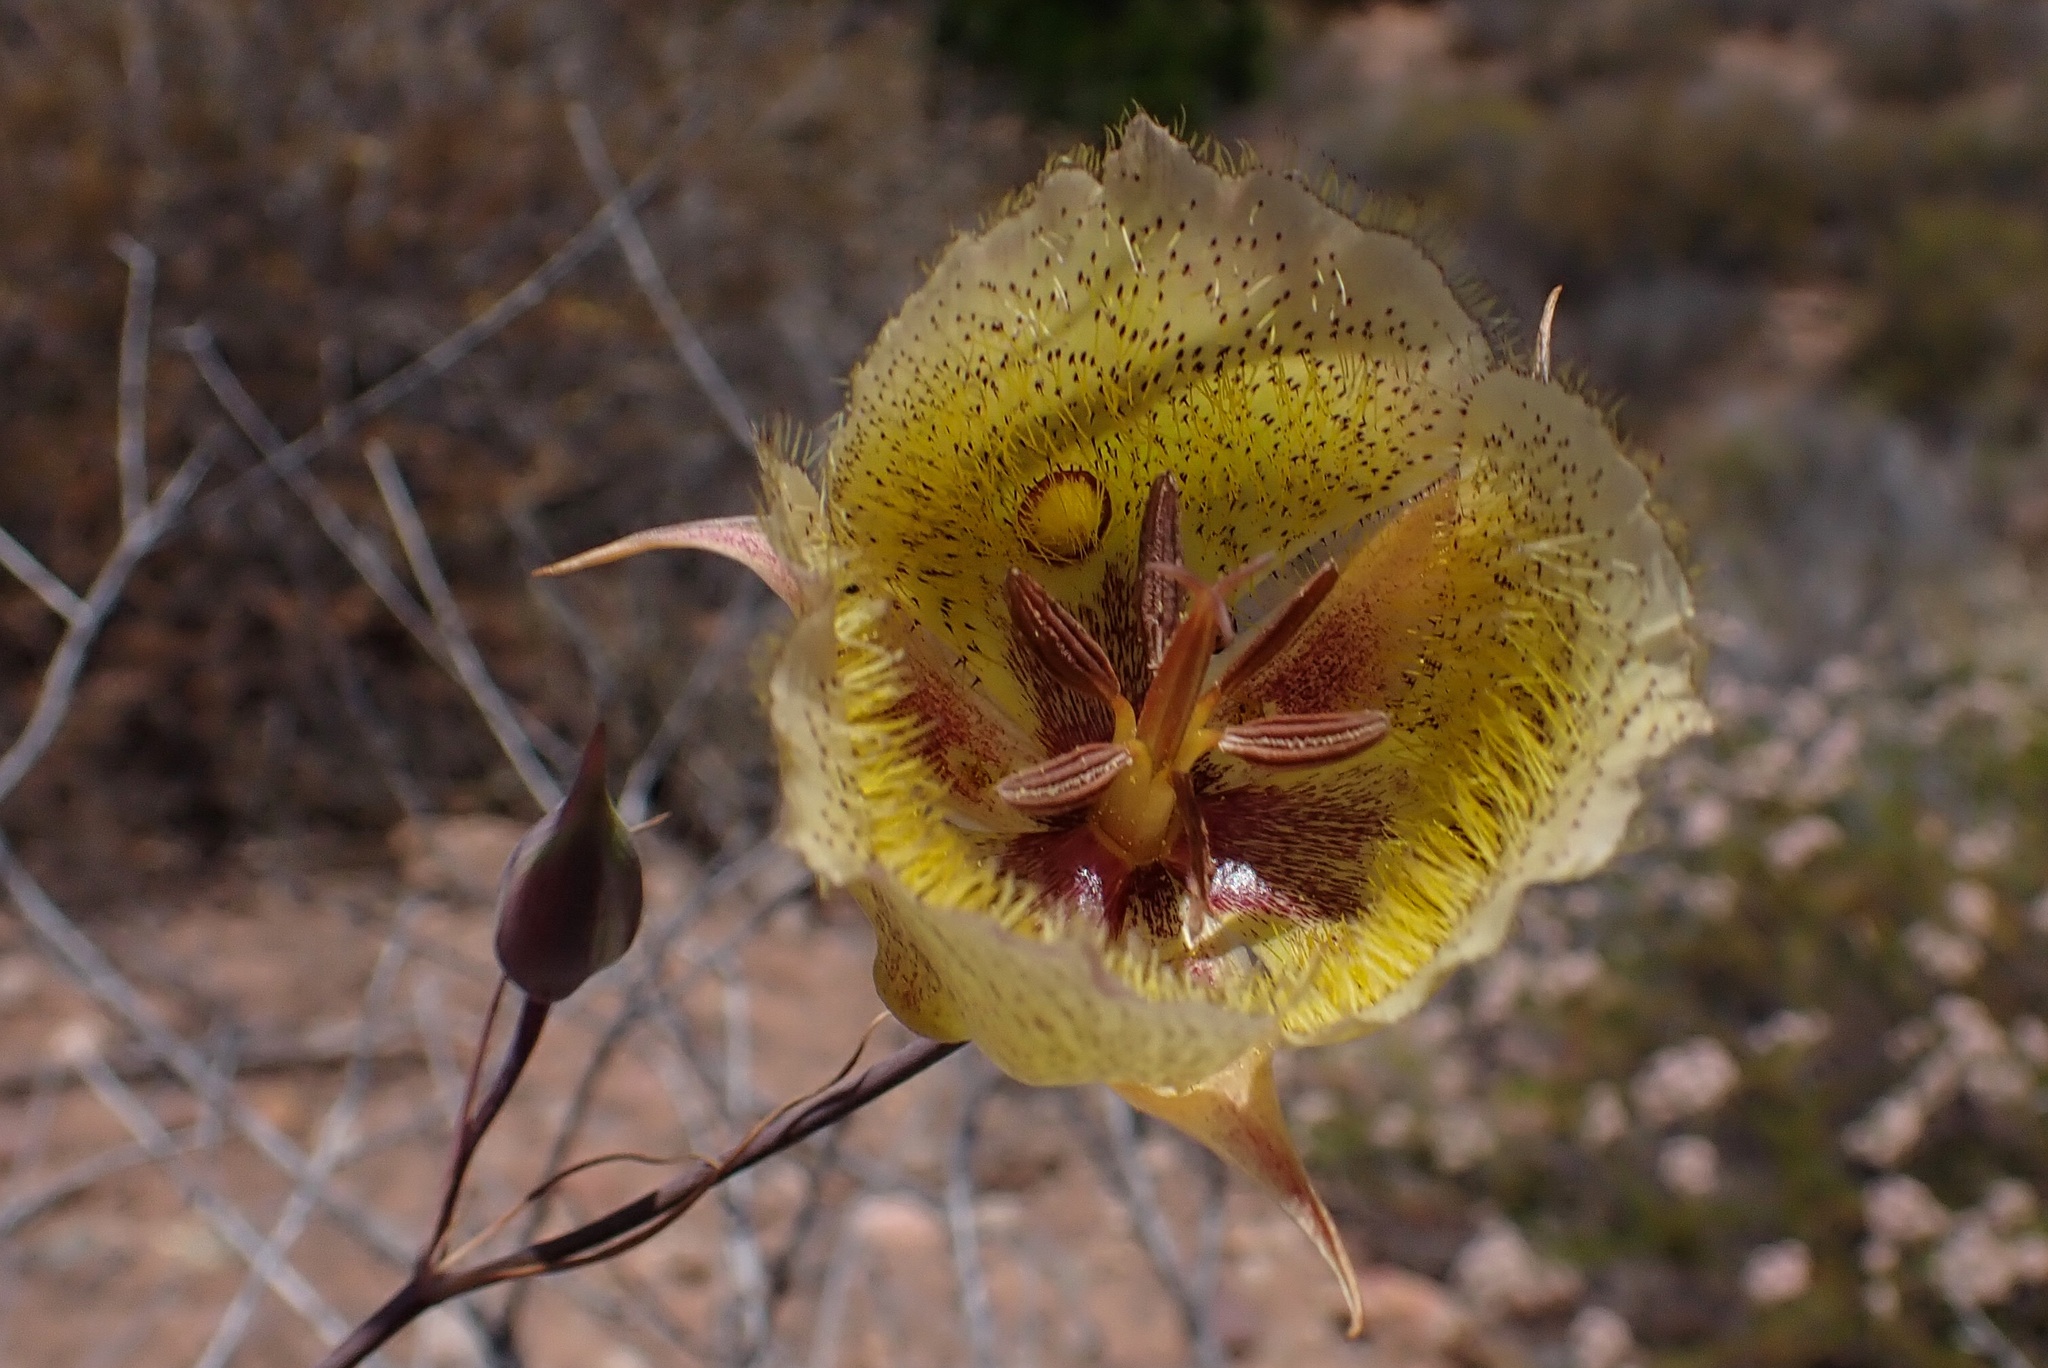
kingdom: Plantae
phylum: Tracheophyta
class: Liliopsida
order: Liliales
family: Liliaceae
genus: Calochortus
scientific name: Calochortus weedii
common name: Weed's mariposa-lily
